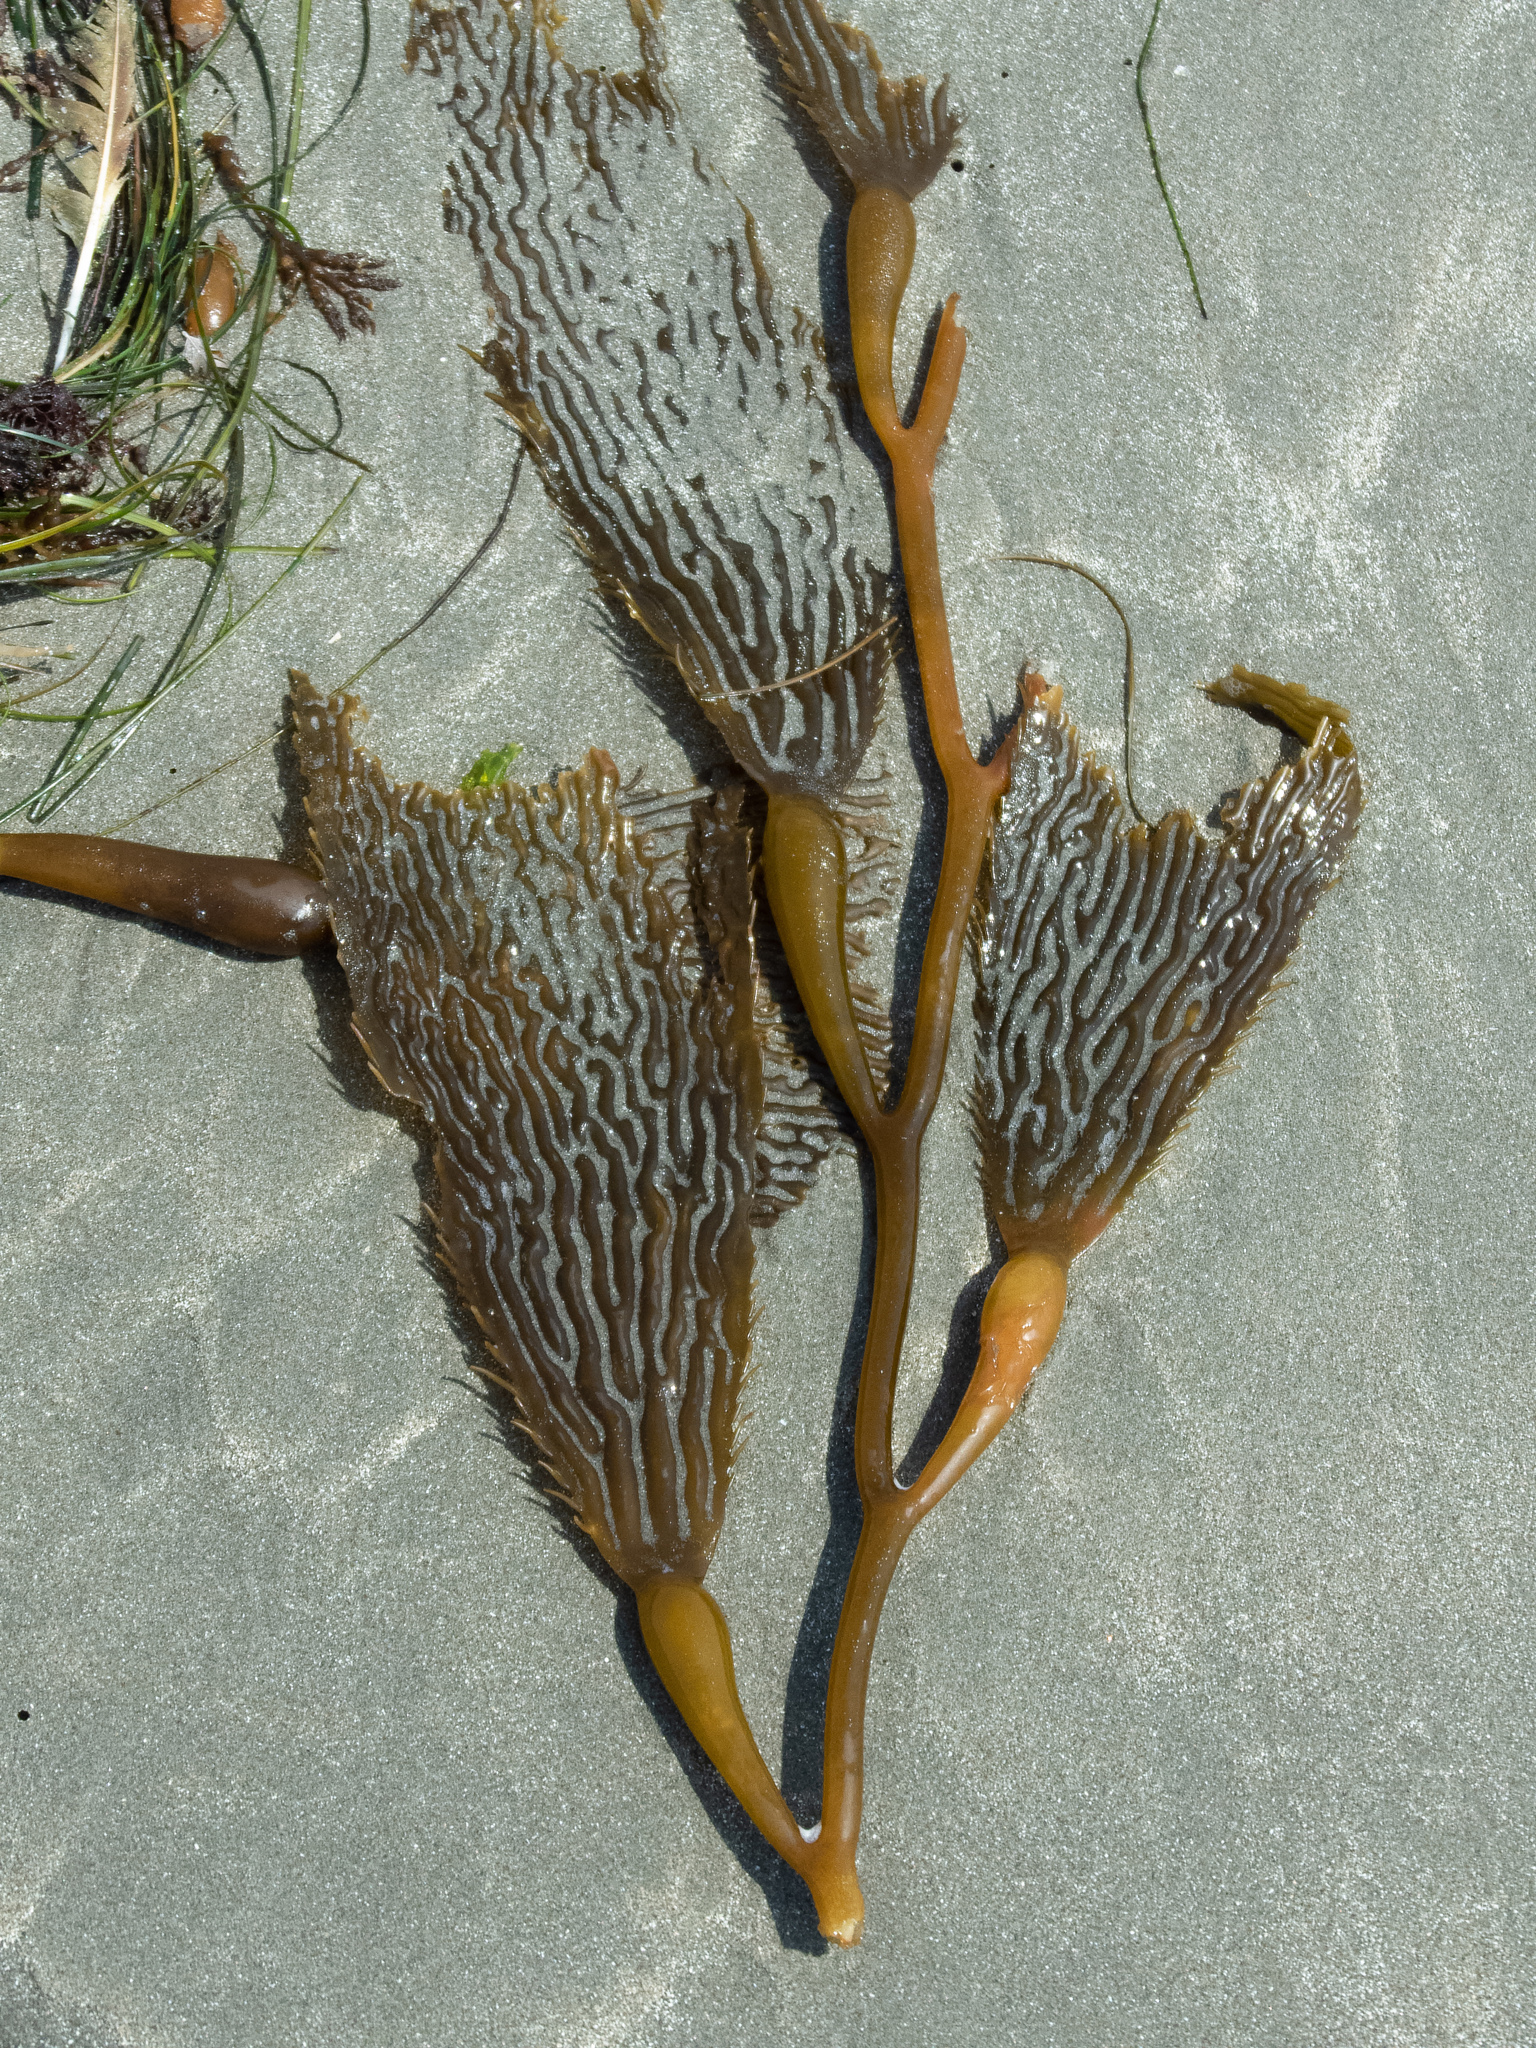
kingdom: Chromista
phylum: Ochrophyta
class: Phaeophyceae
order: Laminariales
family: Laminariaceae
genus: Macrocystis
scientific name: Macrocystis pyrifera
